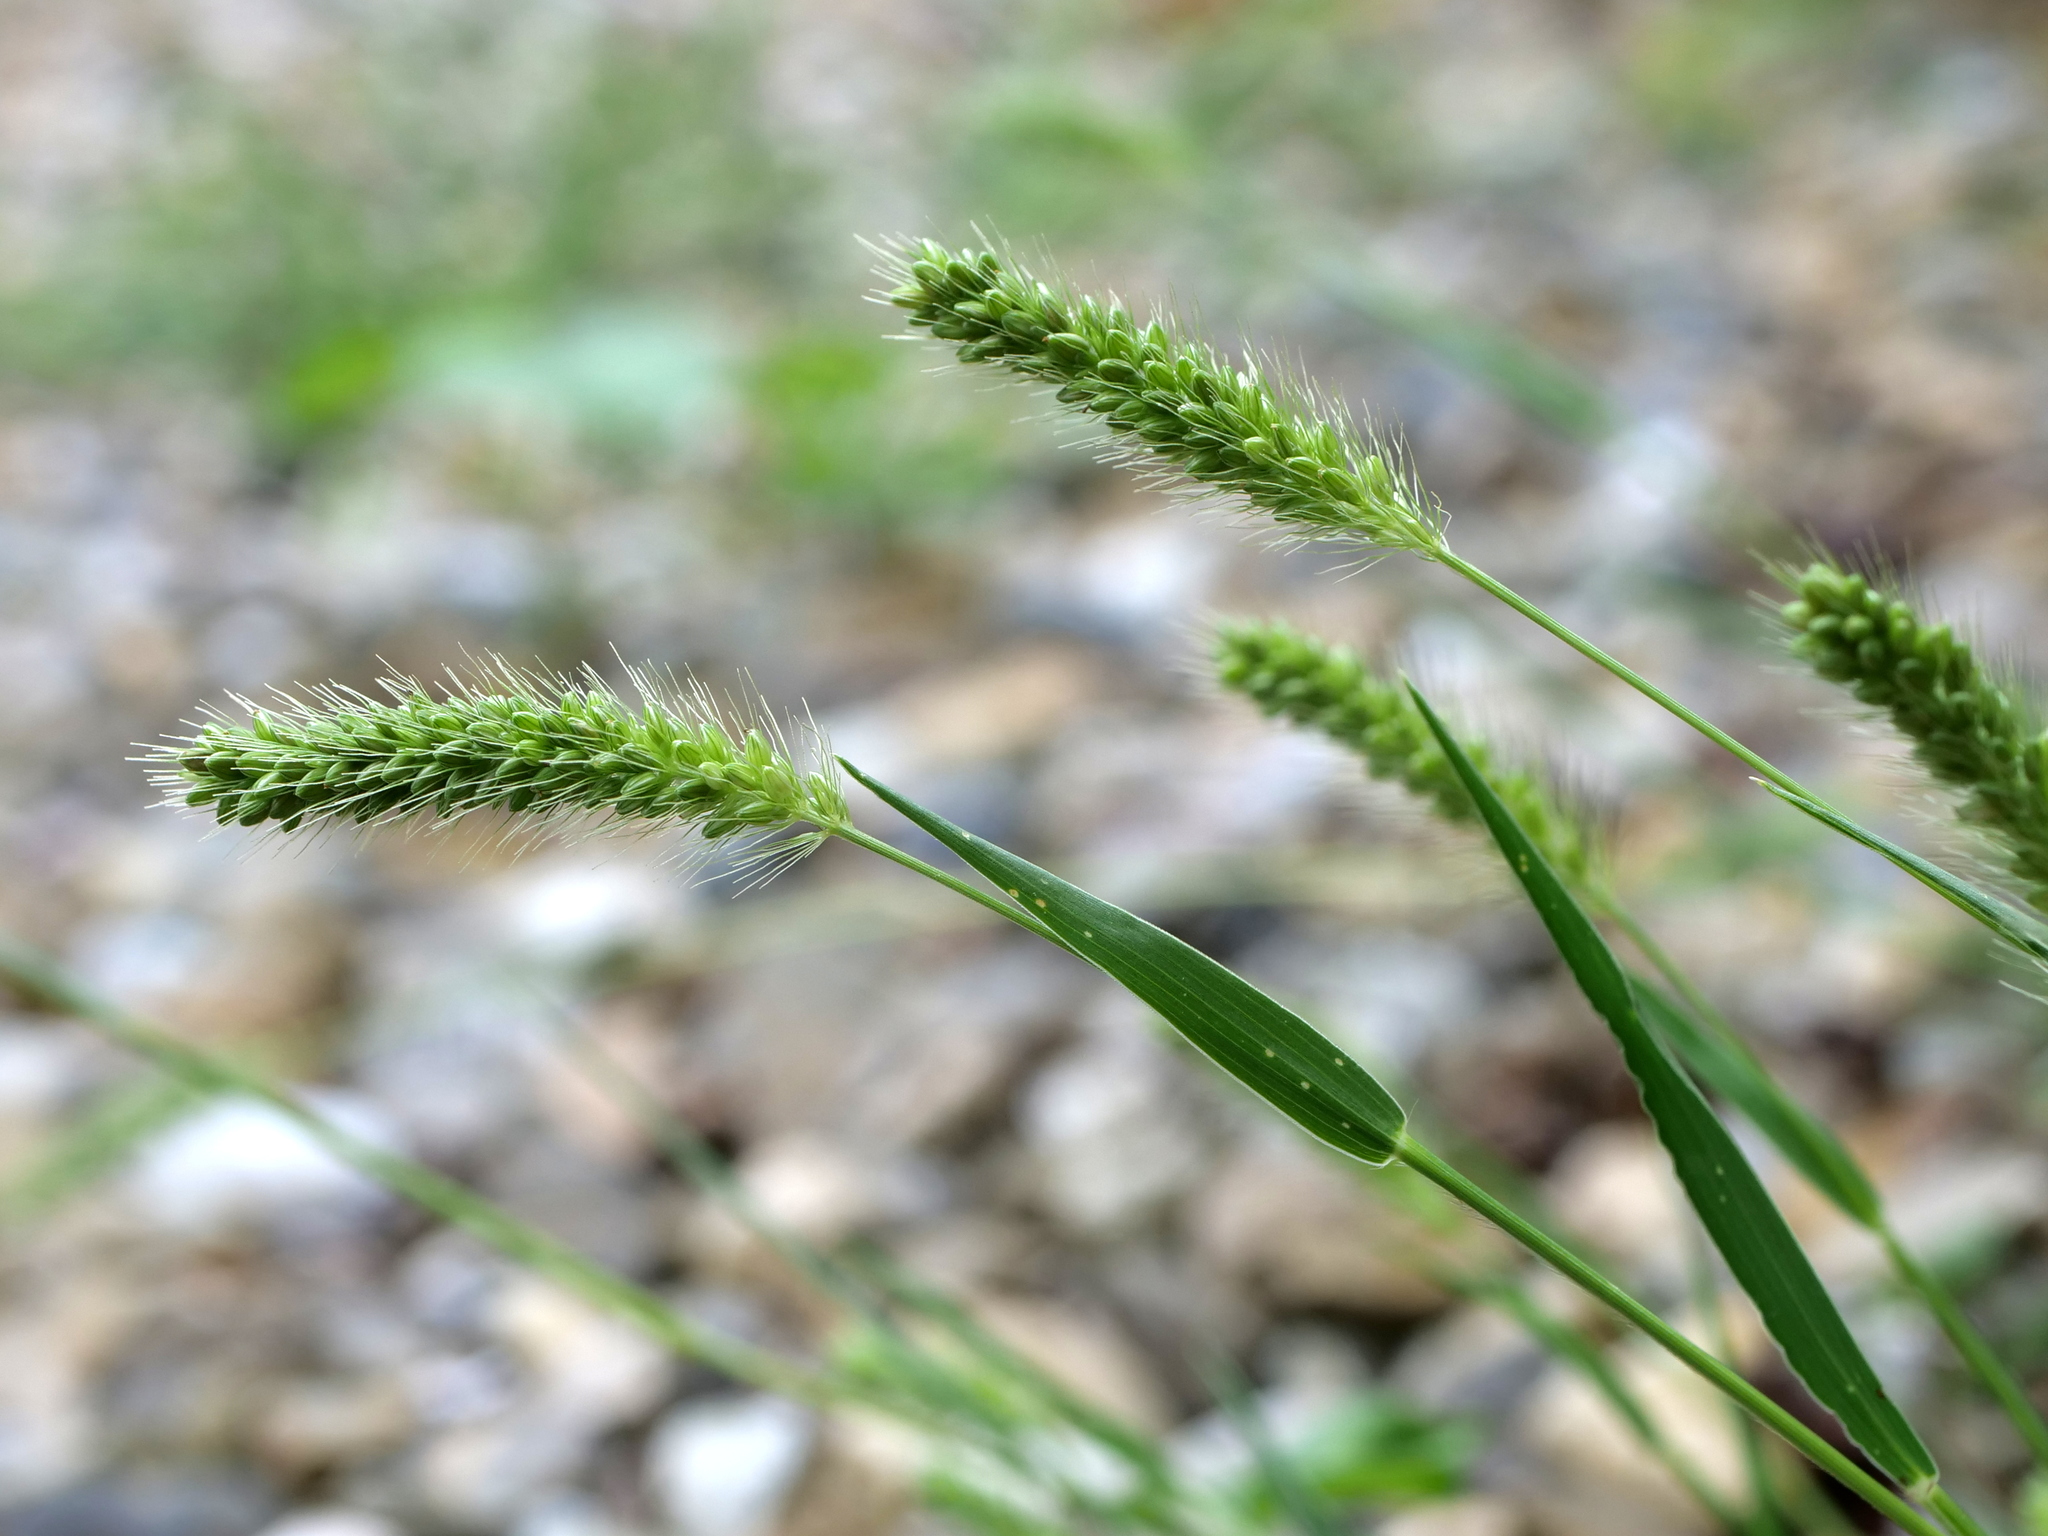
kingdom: Plantae
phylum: Tracheophyta
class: Liliopsida
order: Poales
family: Poaceae
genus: Setaria
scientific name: Setaria viridis
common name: Green bristlegrass
